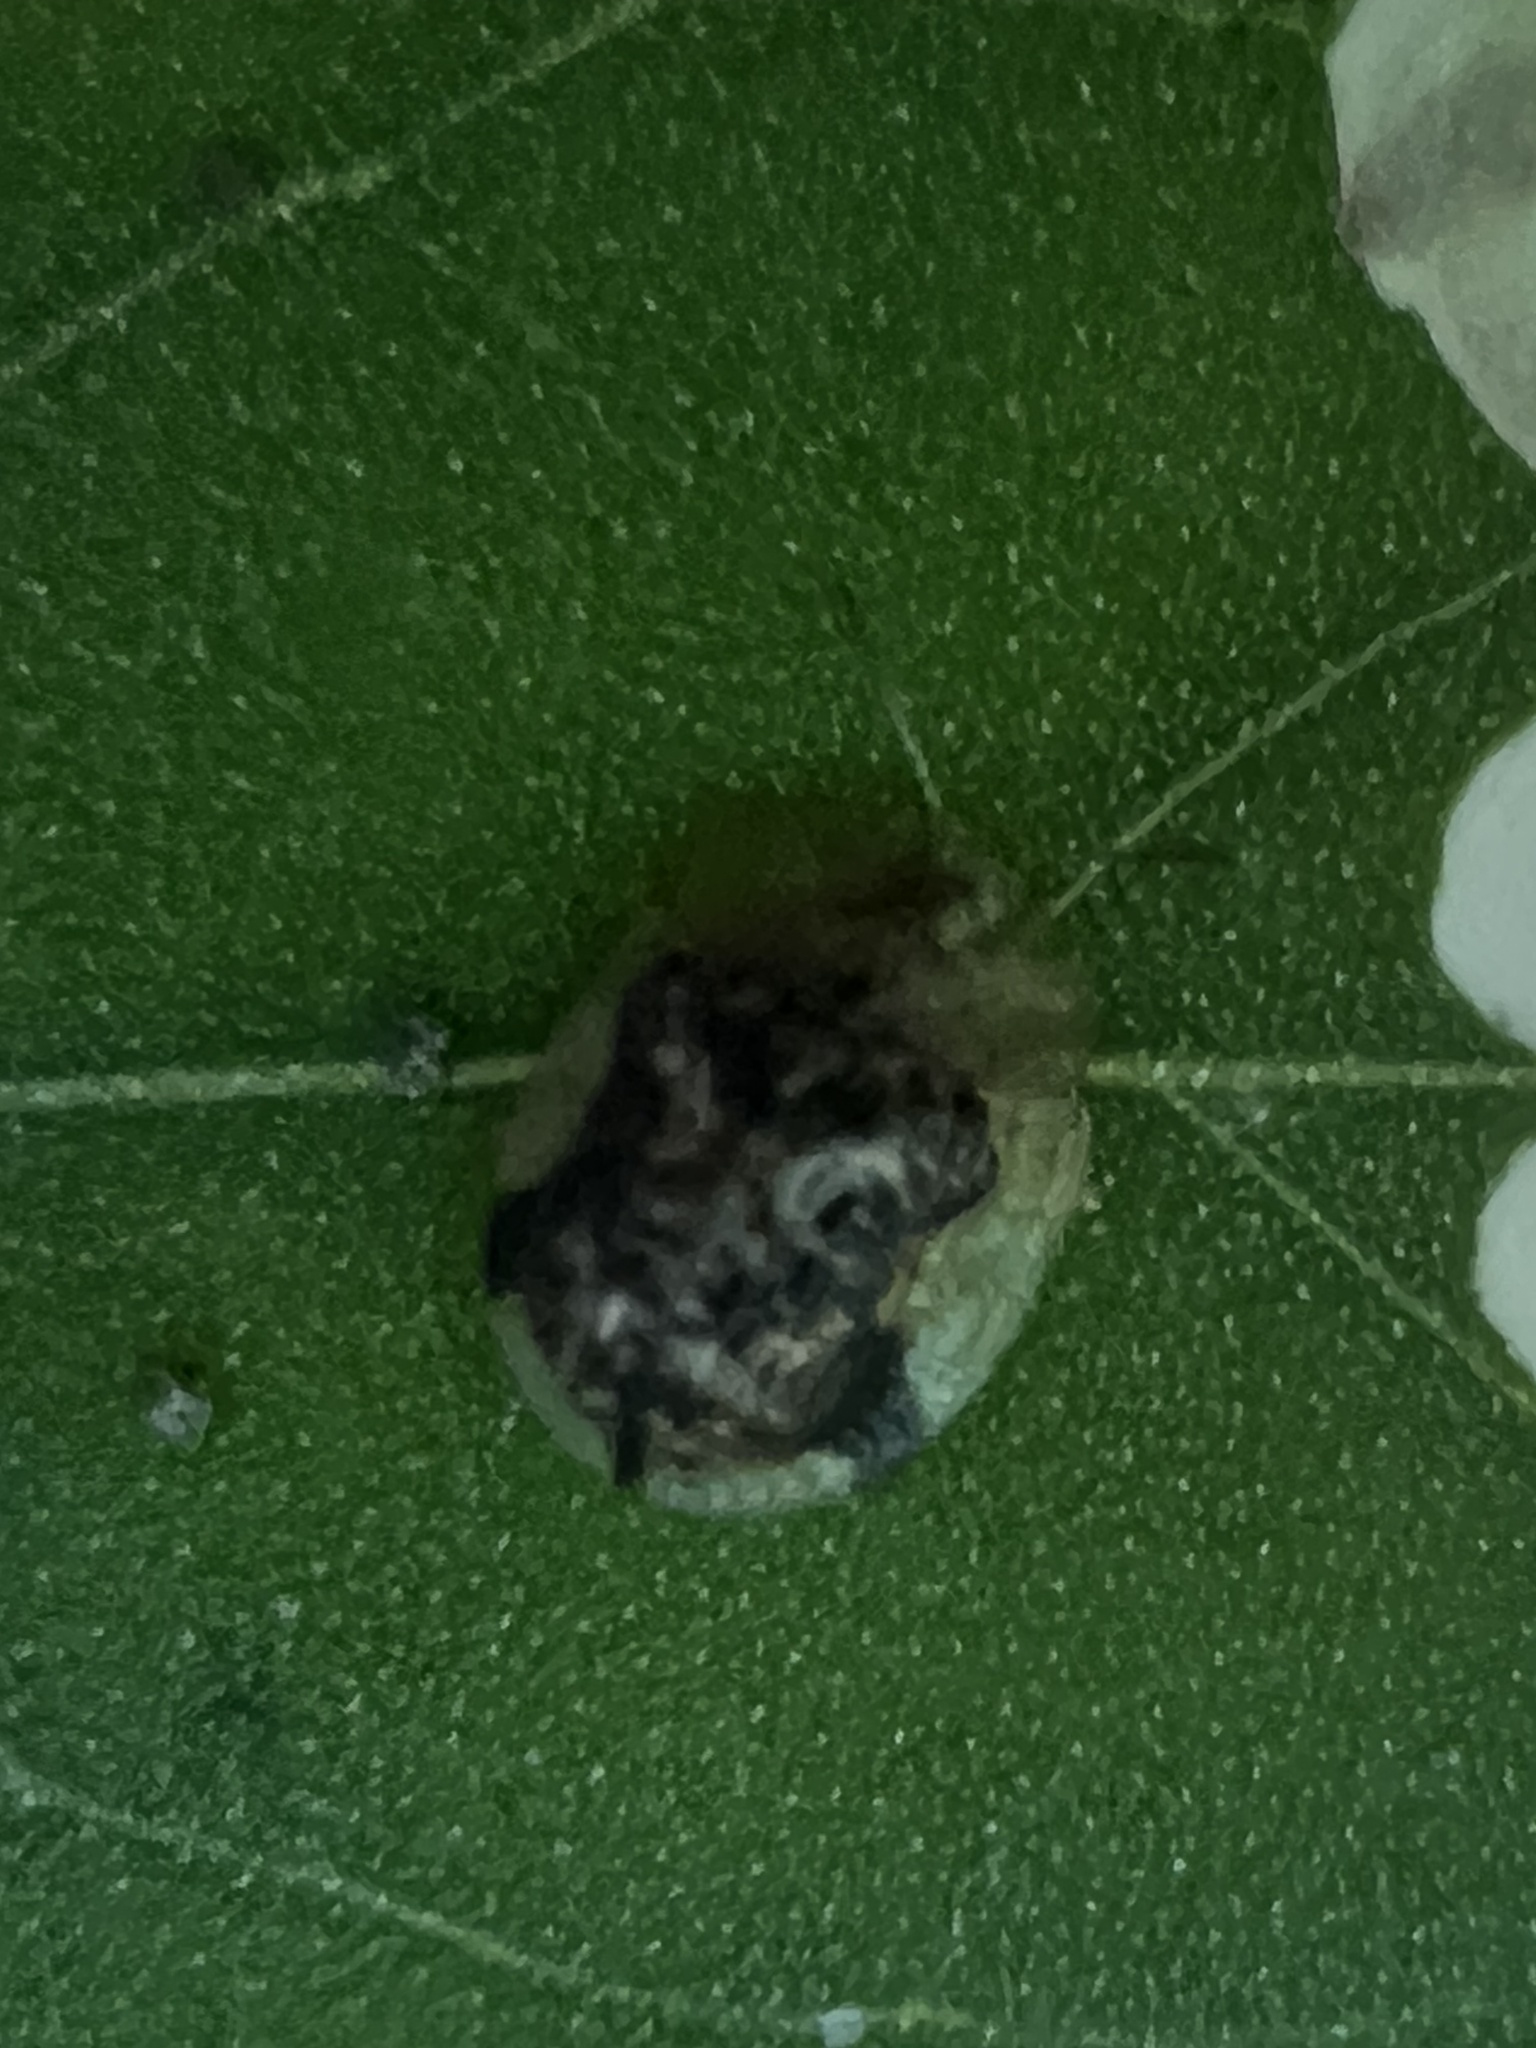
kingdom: Animalia
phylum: Arthropoda
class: Insecta
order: Coleoptera
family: Chrysomelidae
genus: Cassida
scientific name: Cassida piperata
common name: Small tortoise beetle
